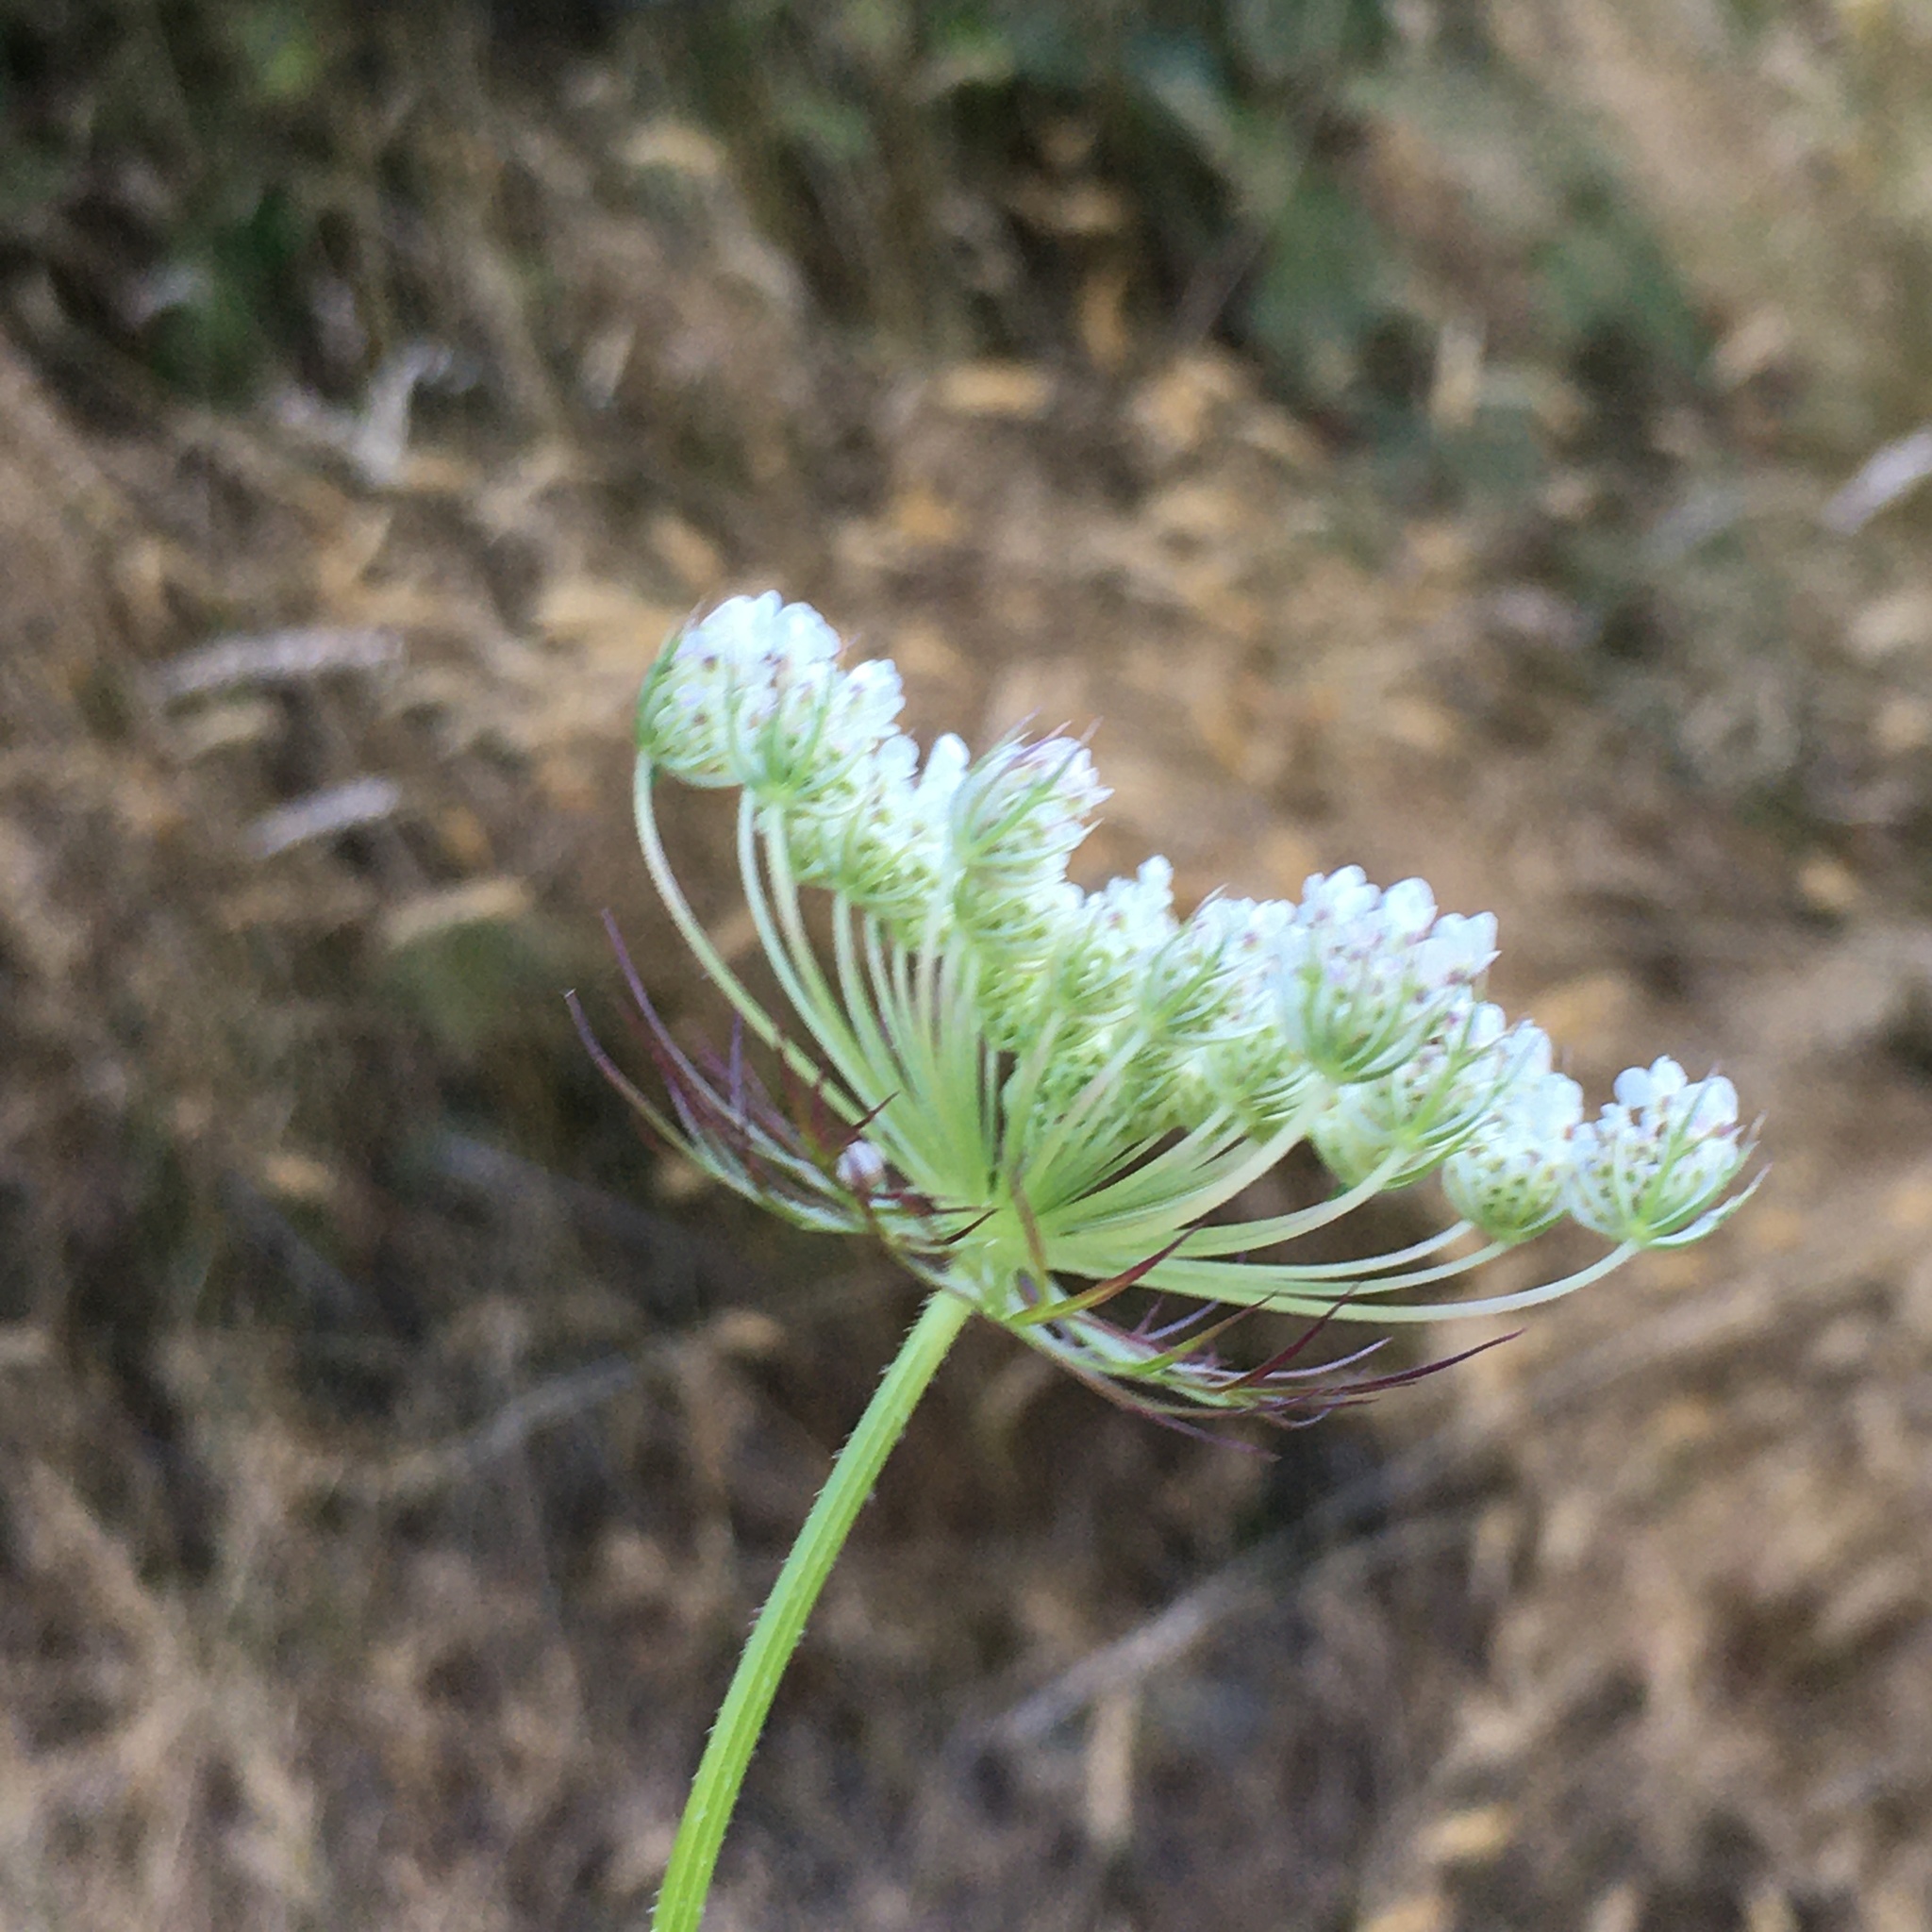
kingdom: Plantae
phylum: Tracheophyta
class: Magnoliopsida
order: Apiales
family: Apiaceae
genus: Daucus
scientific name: Daucus carota
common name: Wild carrot
